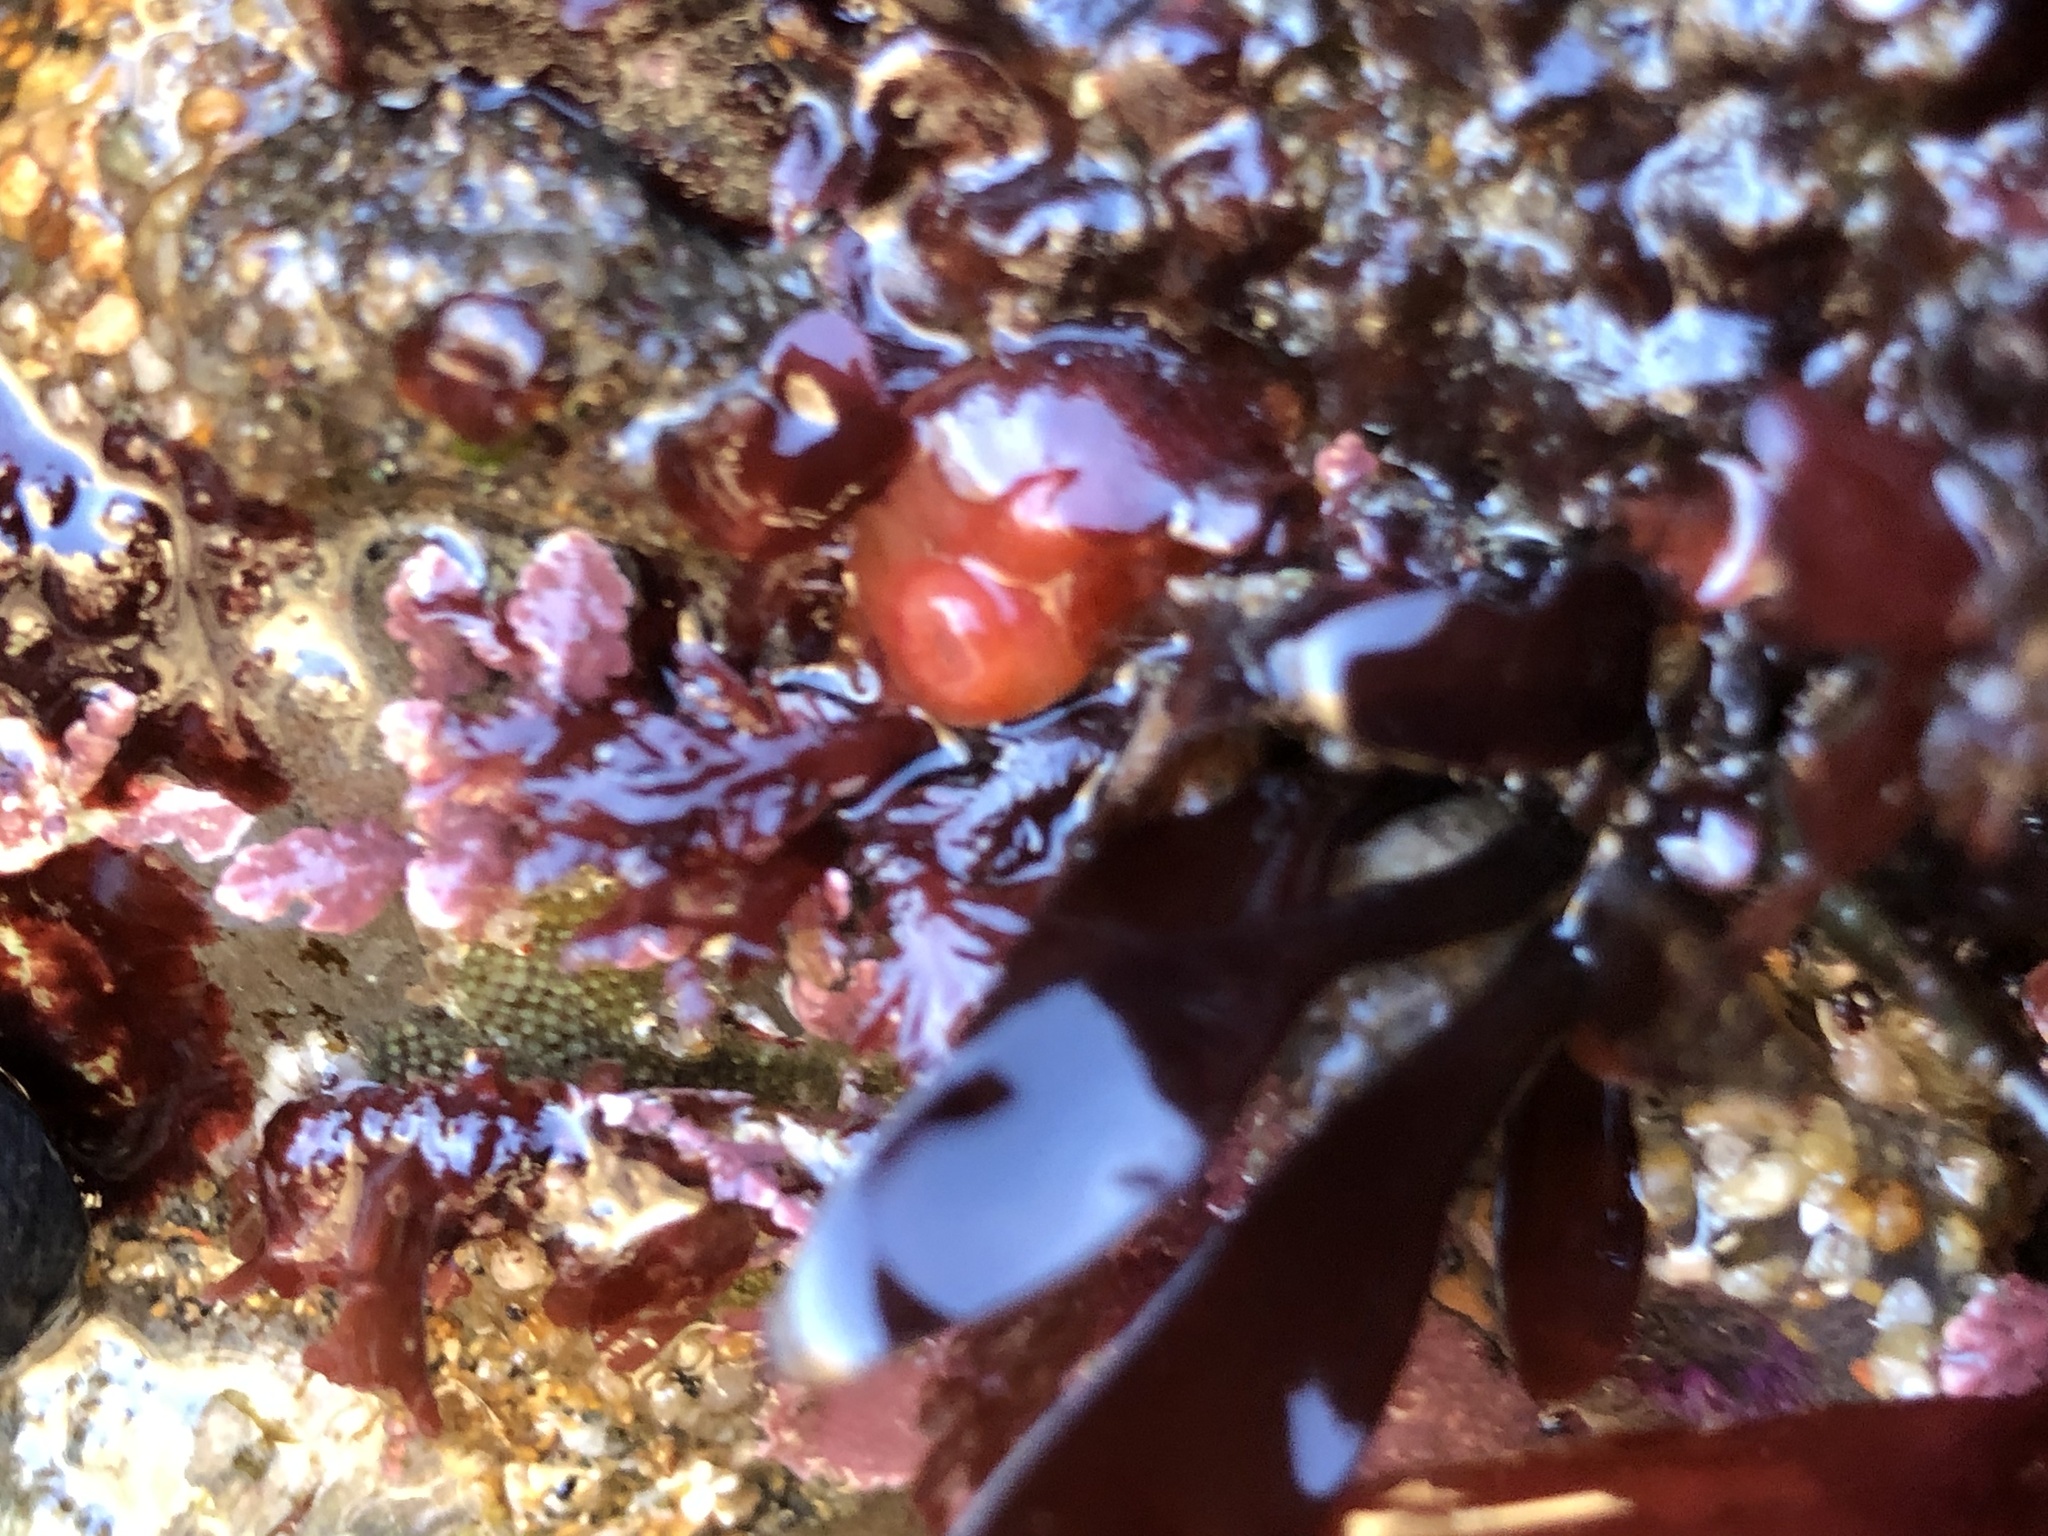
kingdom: Animalia
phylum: Mollusca
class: Bivalvia
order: Adapedonta
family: Hiatellidae
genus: Hiatella
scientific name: Hiatella arctica
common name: Arctic hiatella
